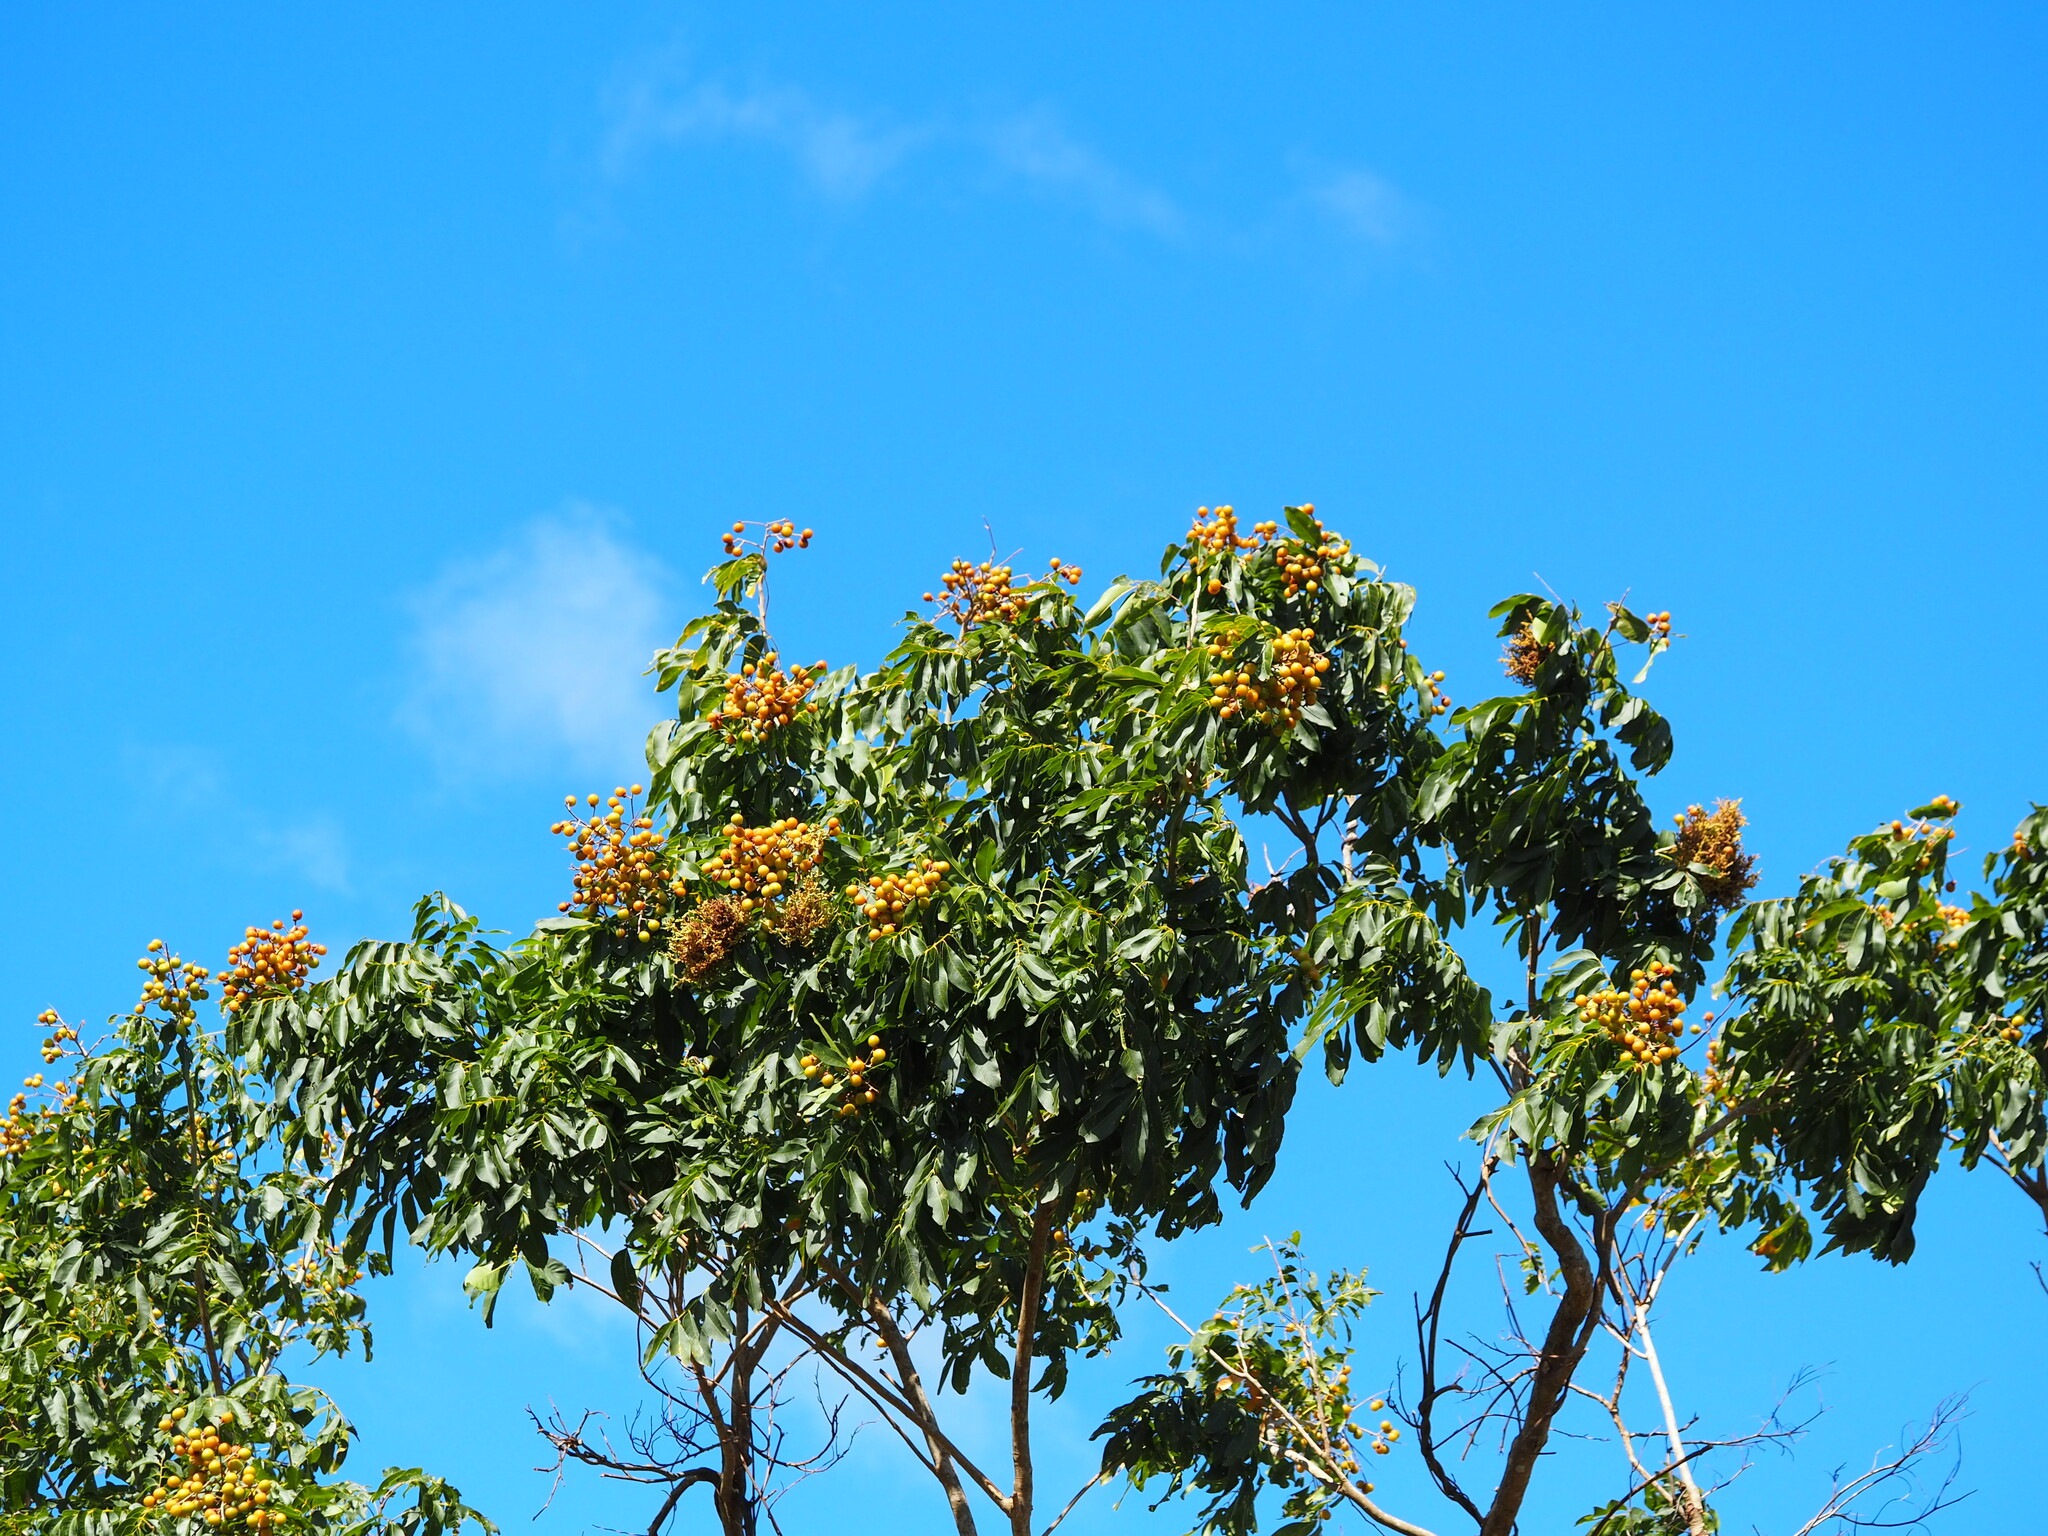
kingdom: Plantae
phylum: Tracheophyta
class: Magnoliopsida
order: Sapindales
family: Sapindaceae
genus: Sapindus
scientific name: Sapindus mukorossi
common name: Chinese soapberry
